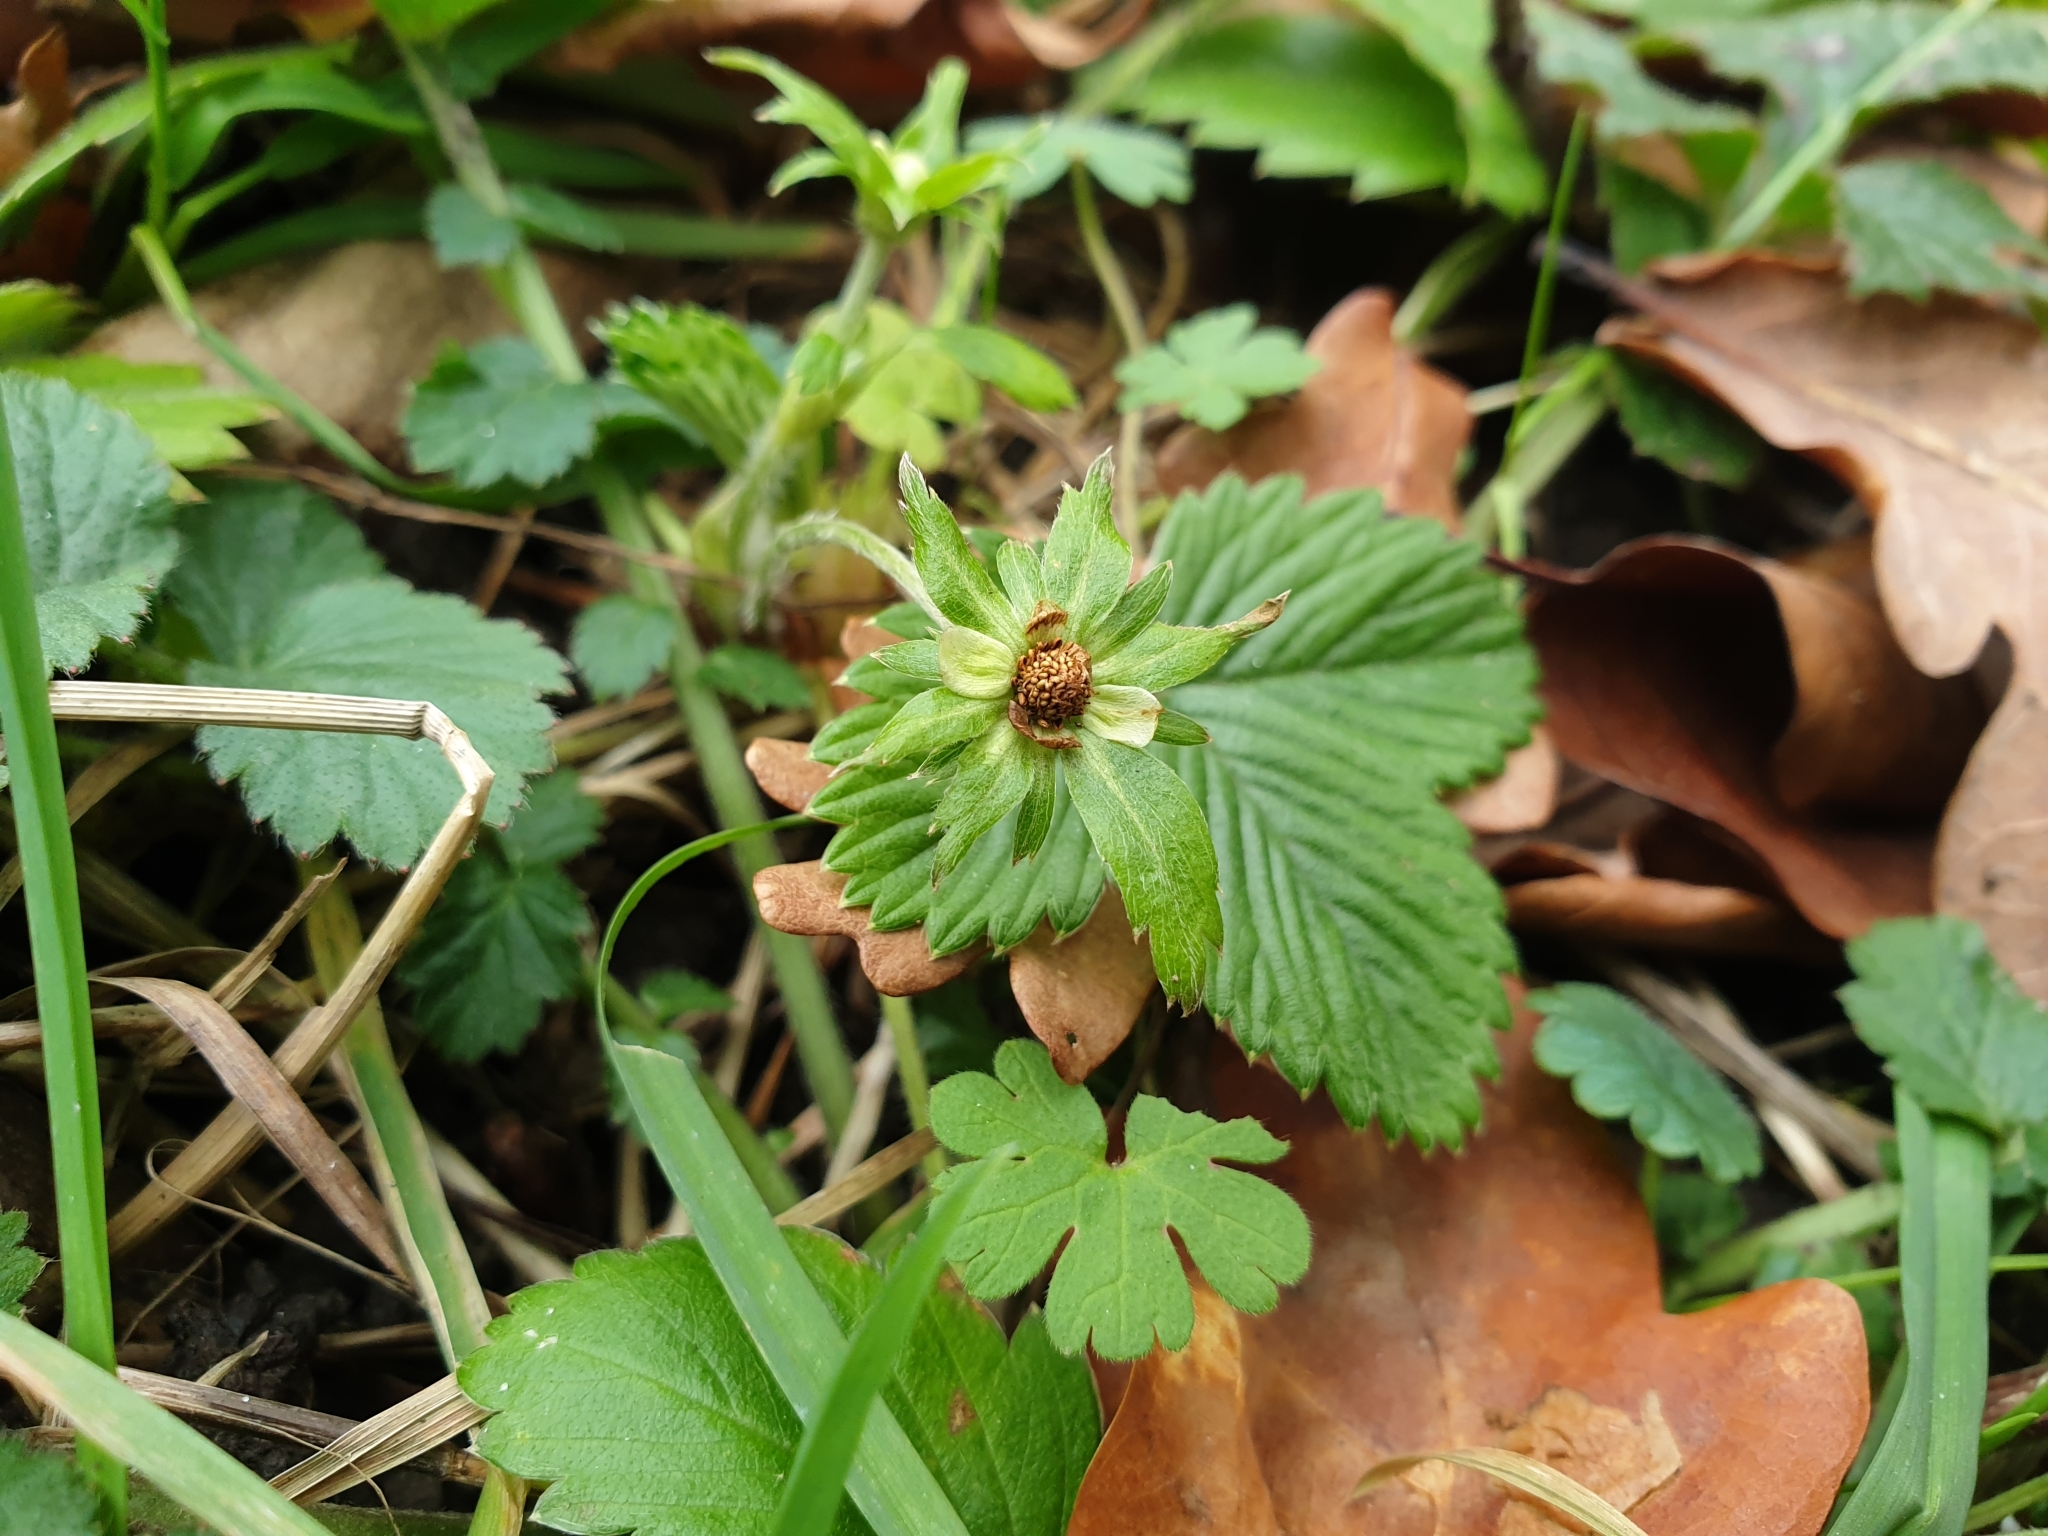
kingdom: Plantae
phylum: Tracheophyta
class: Magnoliopsida
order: Rosales
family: Rosaceae
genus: Fragaria
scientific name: Fragaria vesca
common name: Wild strawberry
